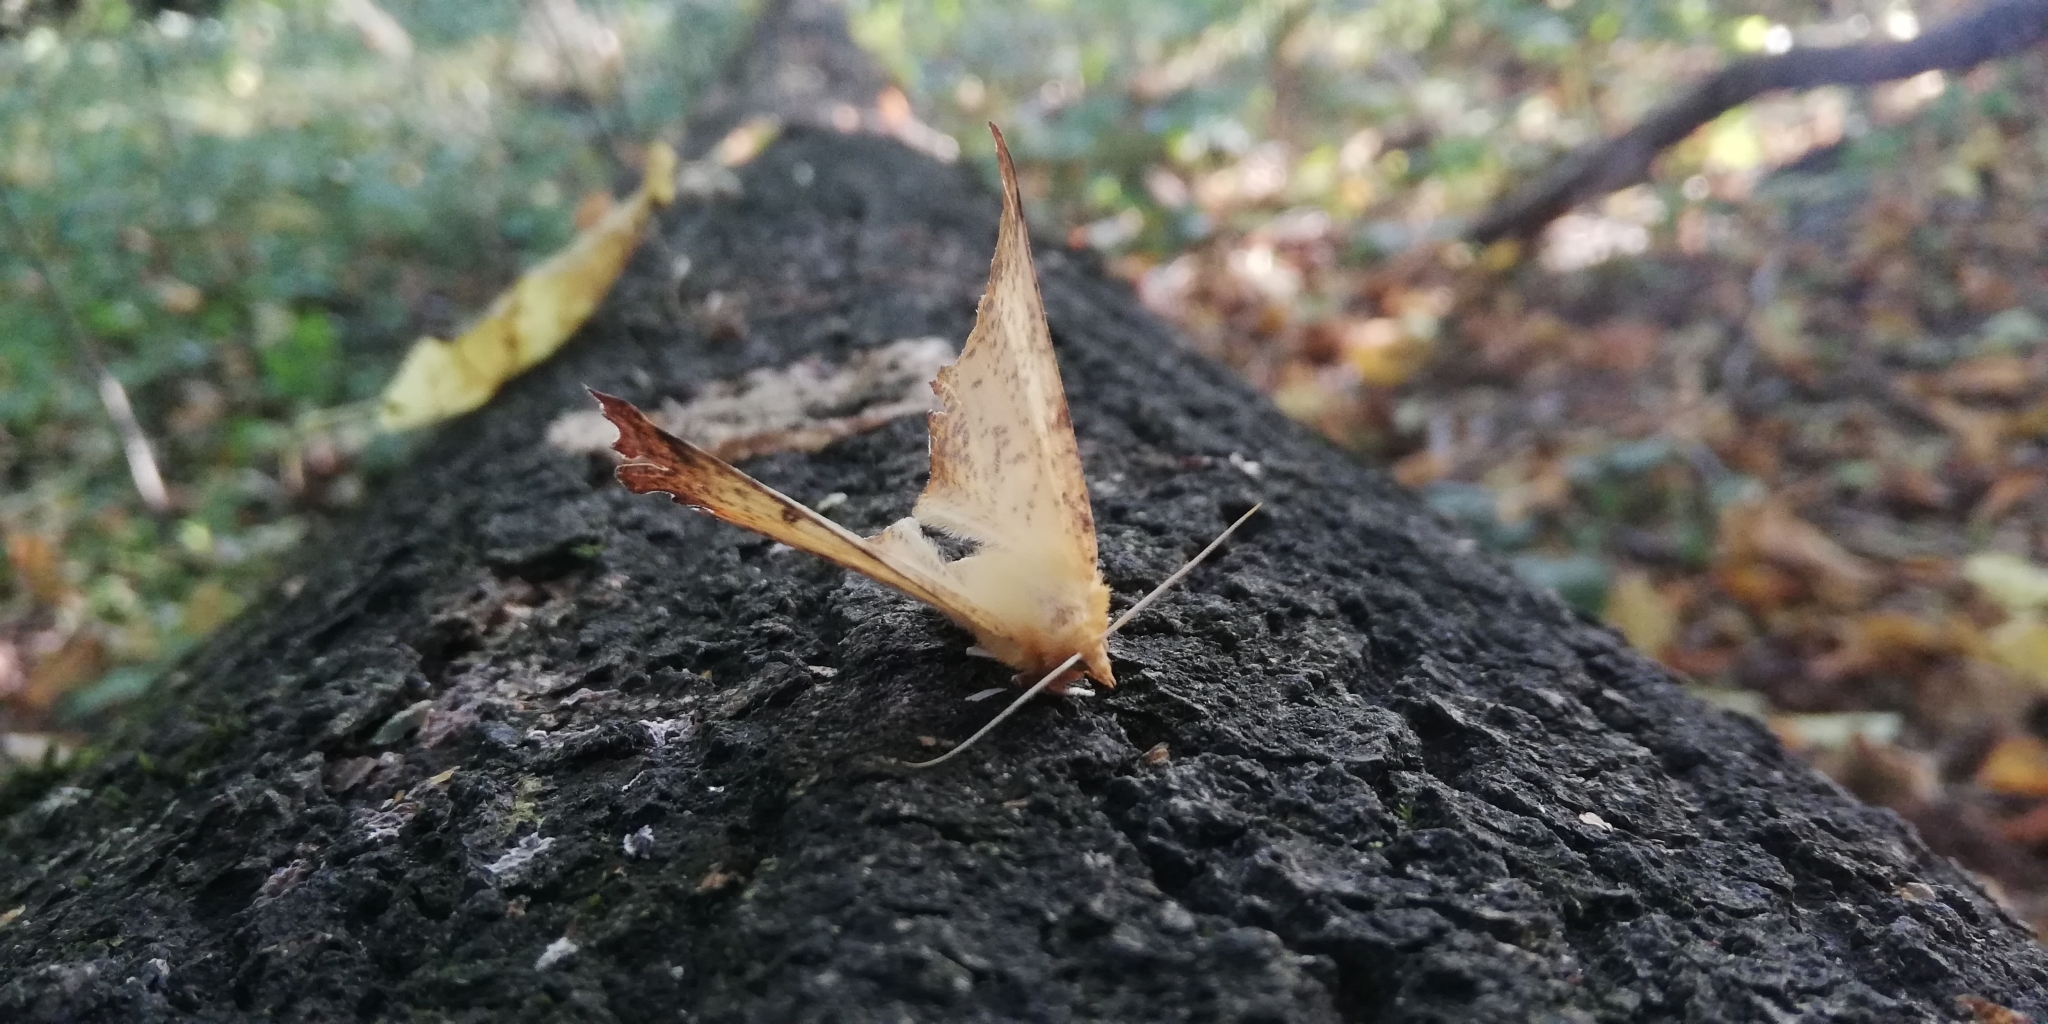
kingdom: Animalia
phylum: Arthropoda
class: Insecta
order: Lepidoptera
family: Geometridae
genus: Ennomos
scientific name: Ennomos autumnaria
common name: Large thorn
